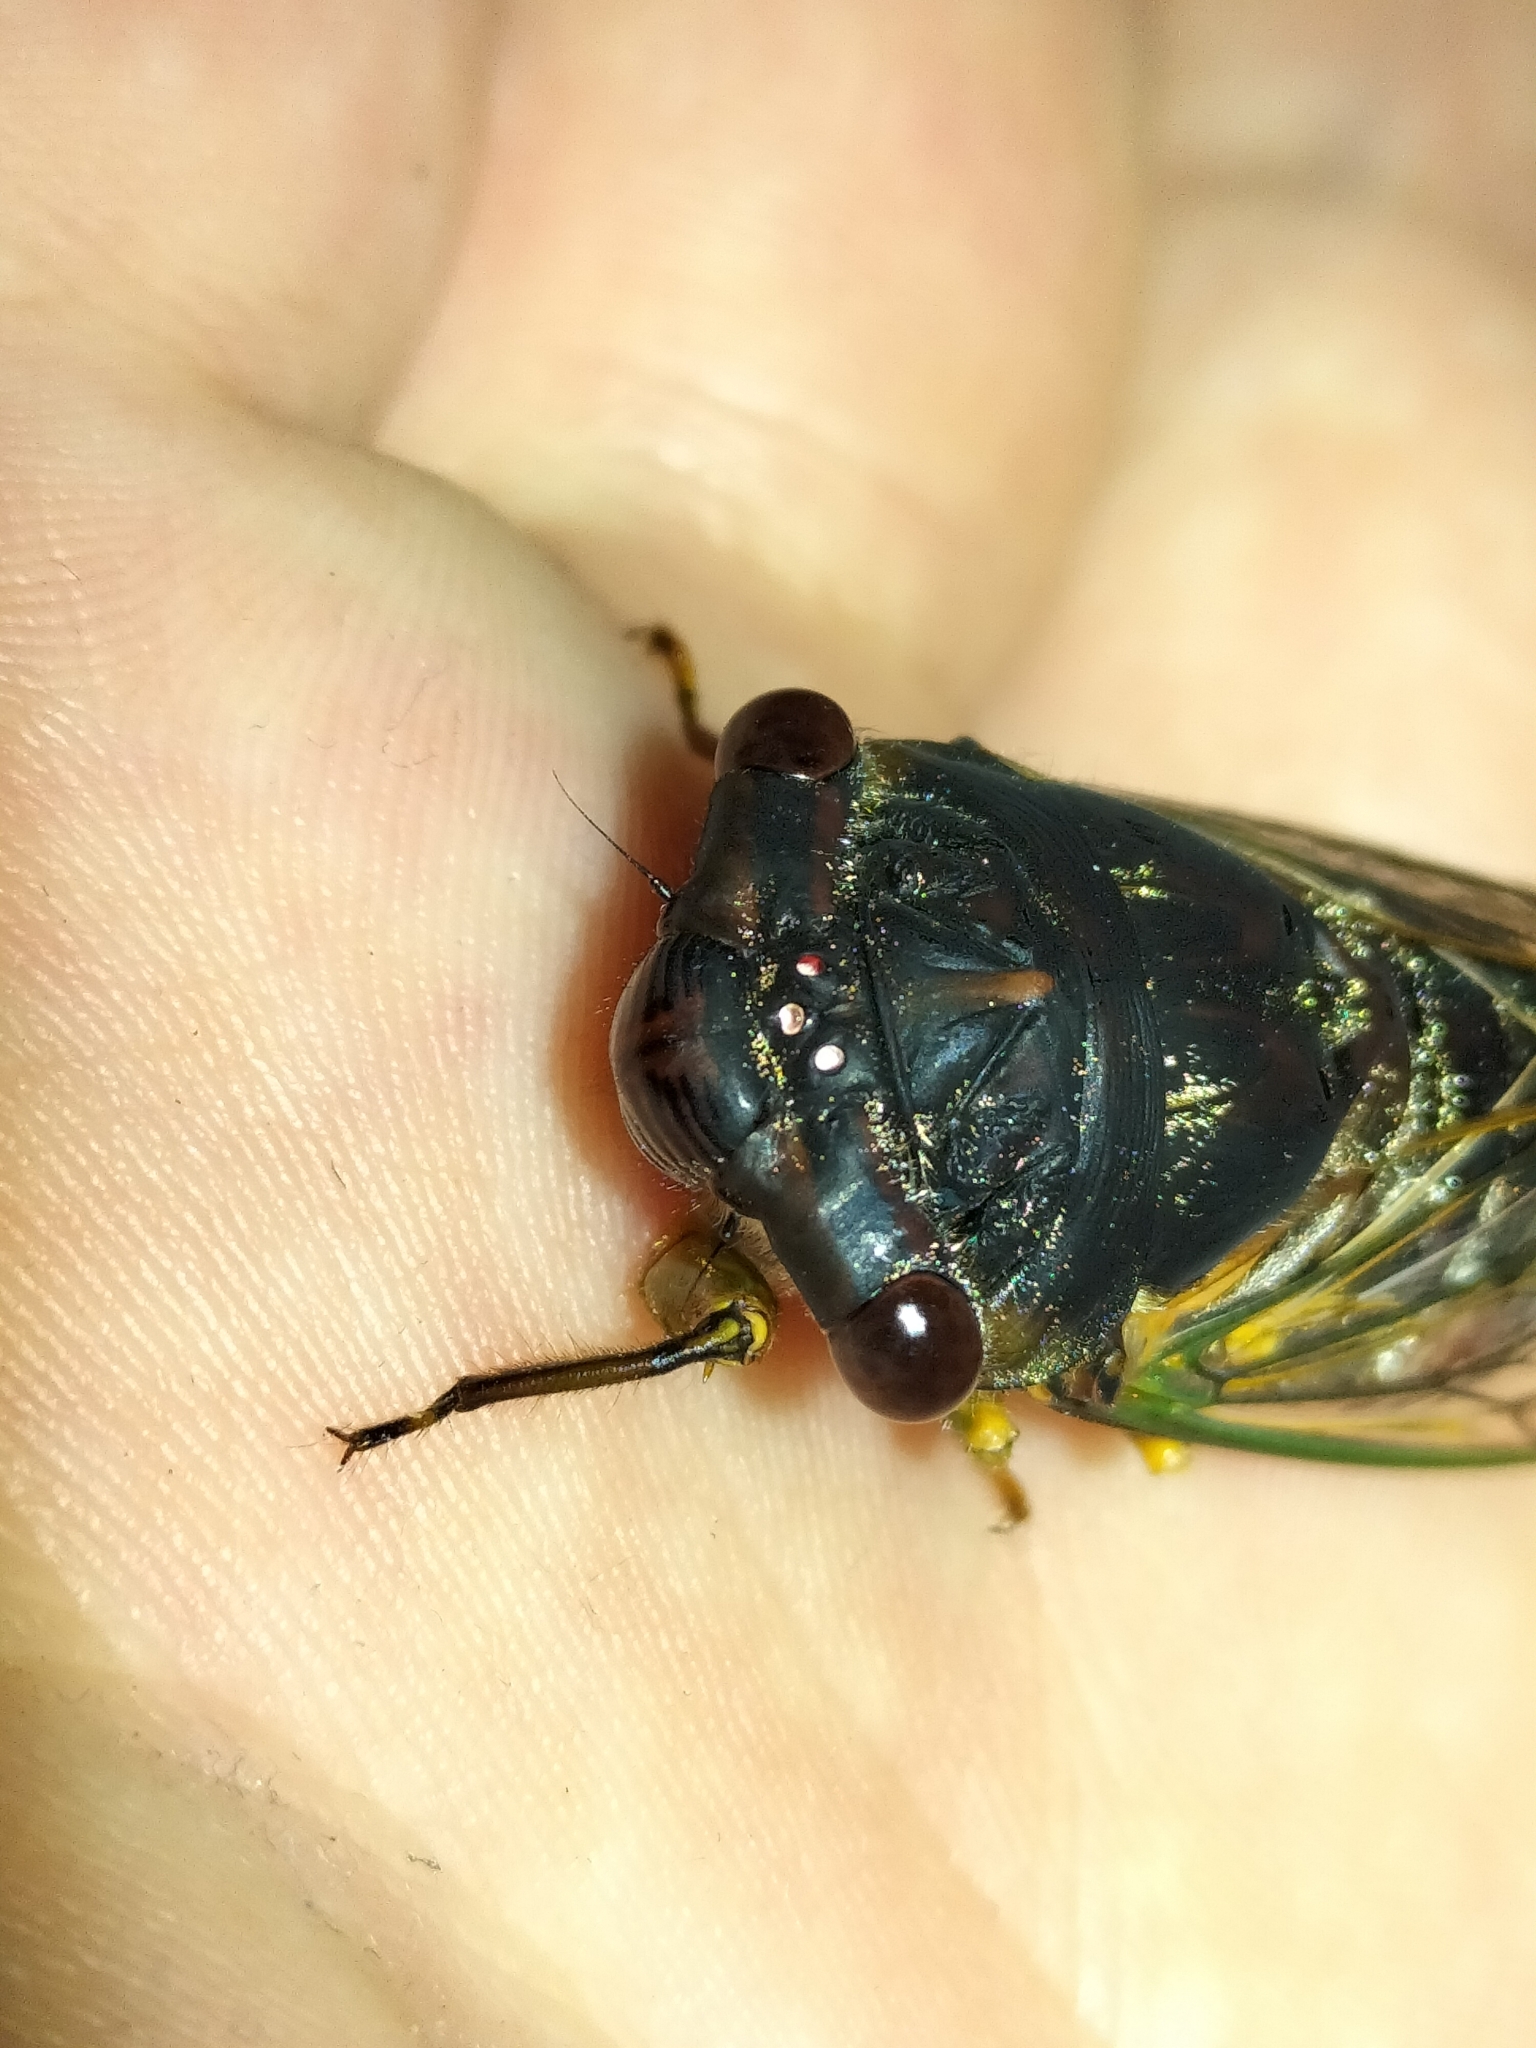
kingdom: Animalia
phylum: Arthropoda
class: Insecta
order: Hemiptera
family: Cicadidae
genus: Psaltoda
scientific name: Psaltoda harrisii
